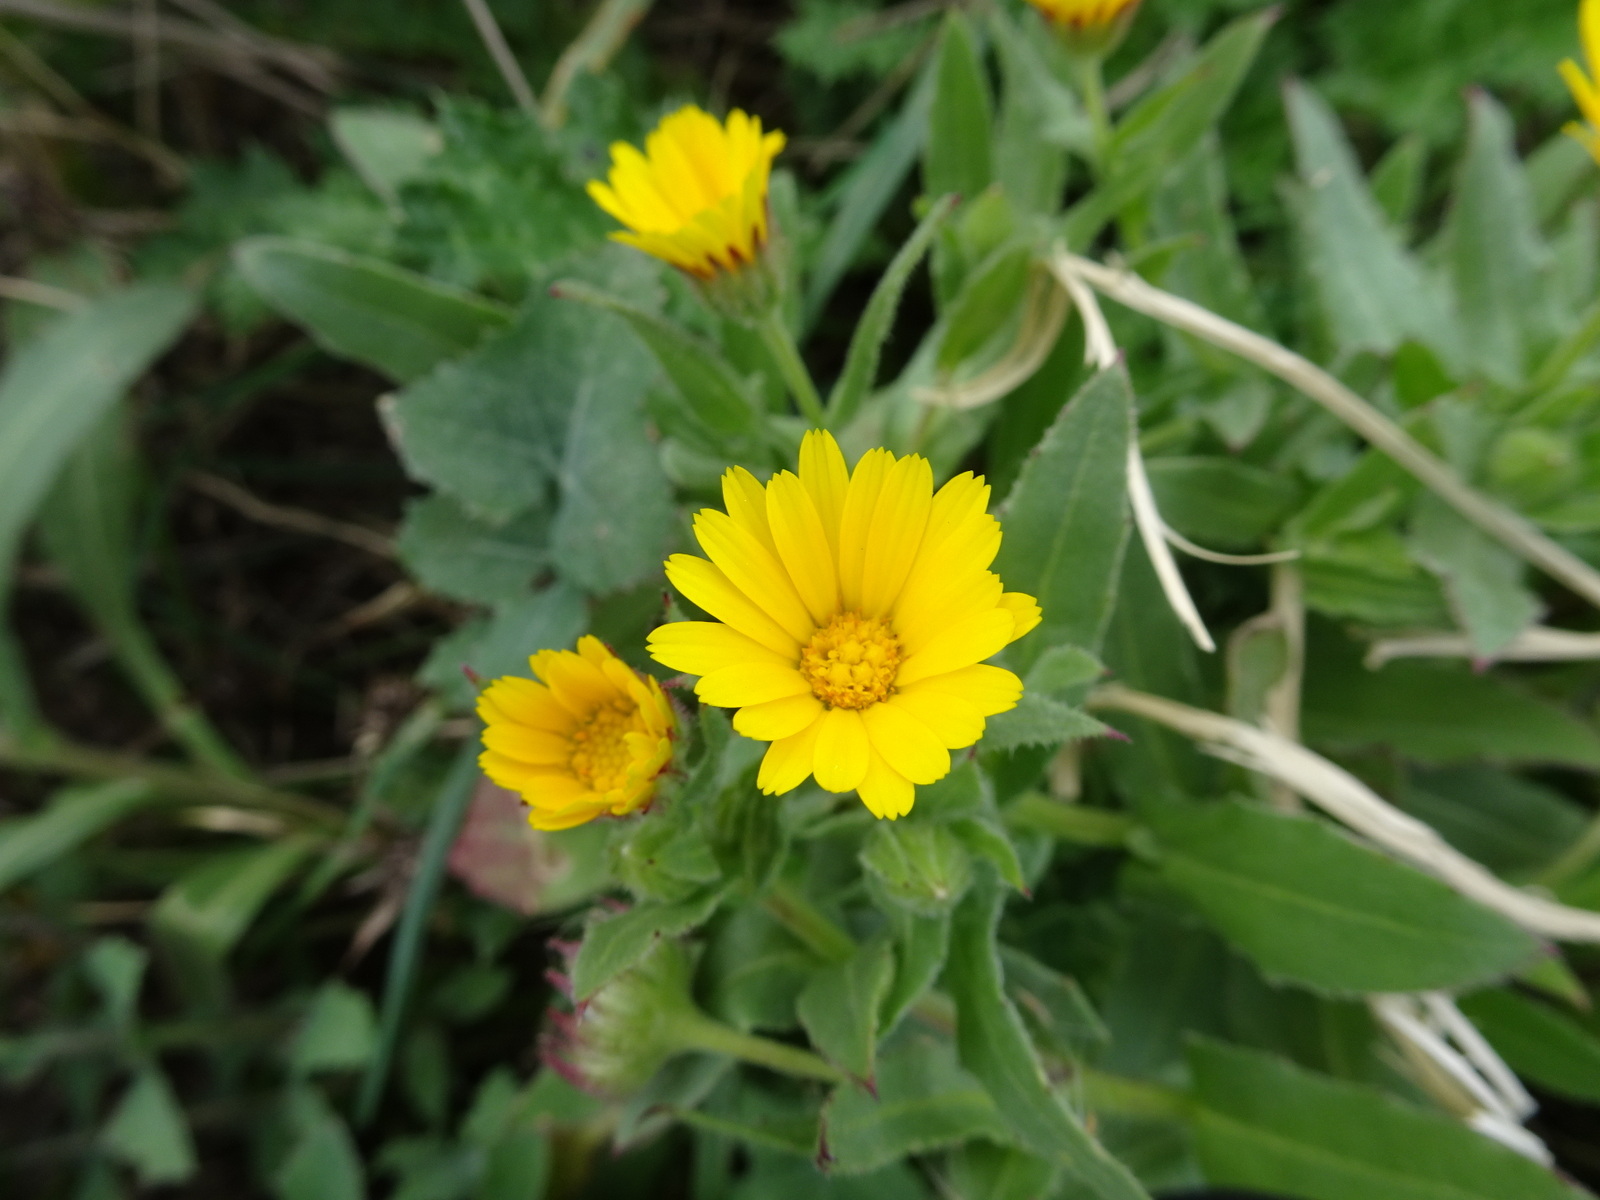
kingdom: Plantae
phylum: Tracheophyta
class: Magnoliopsida
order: Asterales
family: Asteraceae
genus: Calendula
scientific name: Calendula arvensis
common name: Field marigold
